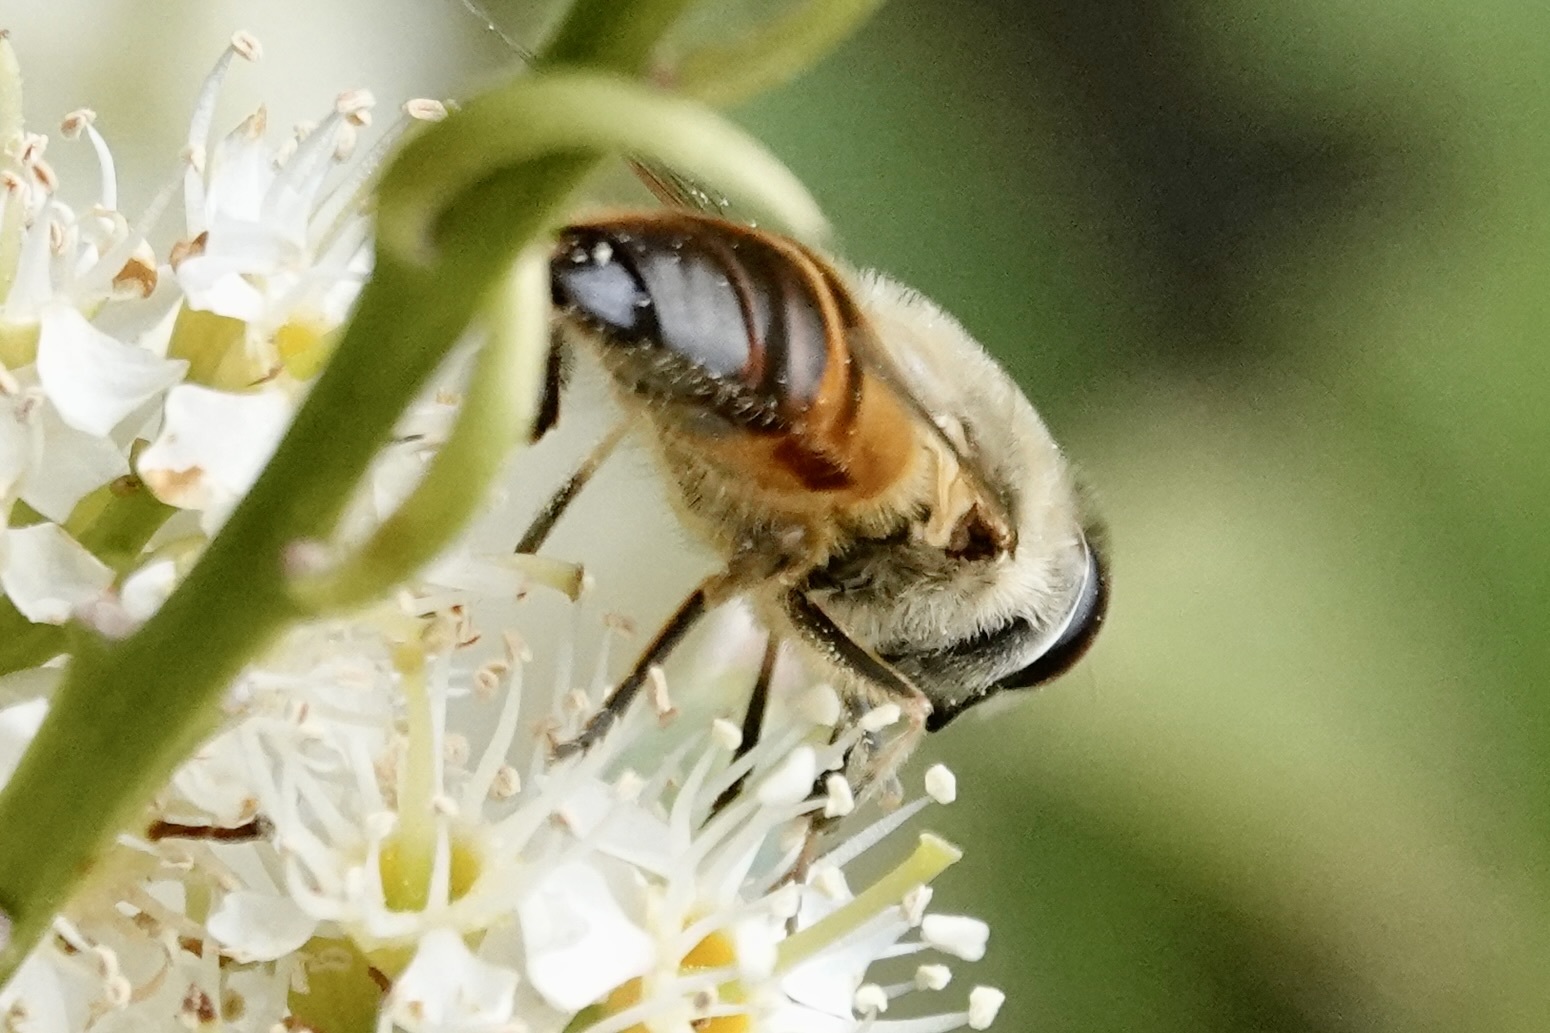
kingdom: Animalia
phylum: Arthropoda
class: Insecta
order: Diptera
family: Syrphidae
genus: Eristalis
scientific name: Eristalis tenax
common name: Drone fly
